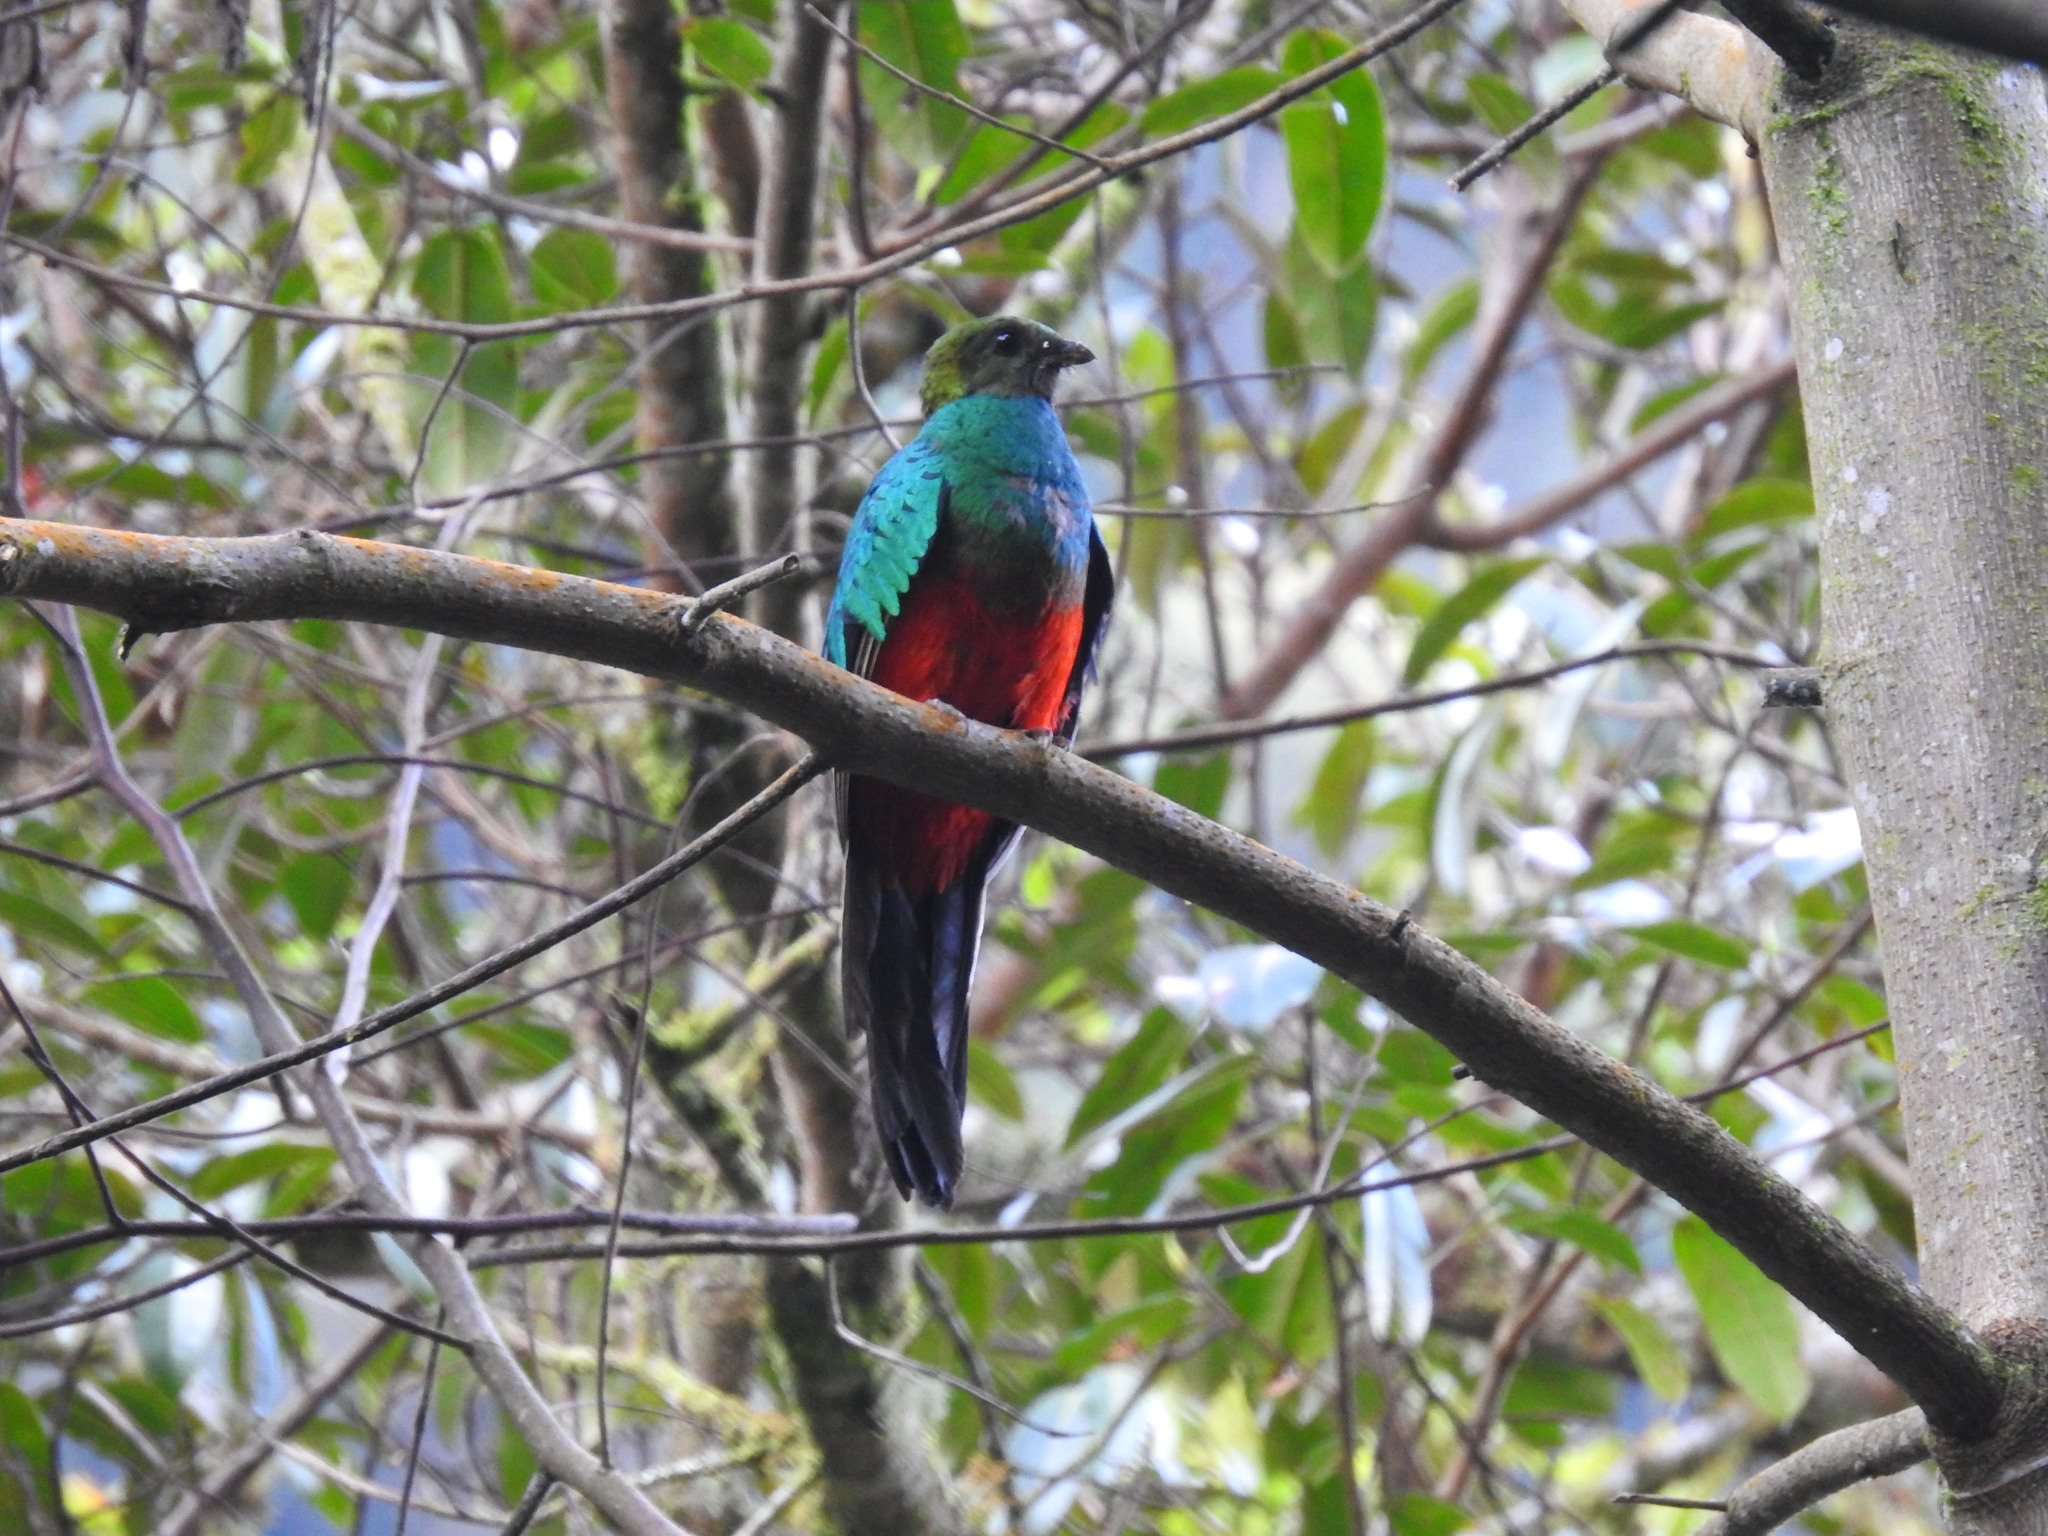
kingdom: Animalia
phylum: Chordata
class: Aves
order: Trogoniformes
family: Trogonidae
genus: Pharomachrus
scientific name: Pharomachrus auriceps
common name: Golden-headed quetzal
